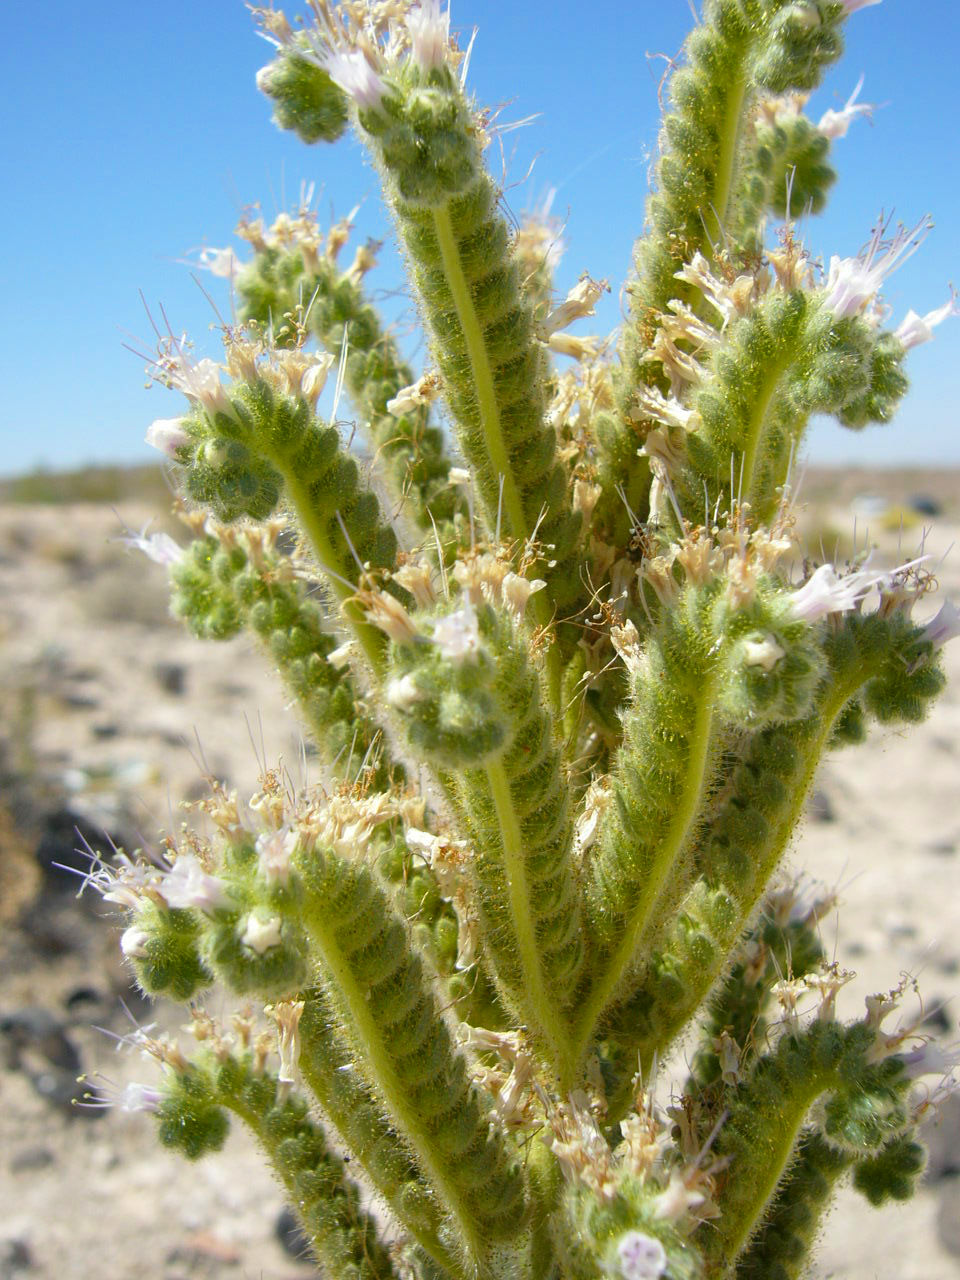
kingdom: Plantae
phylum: Tracheophyta
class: Magnoliopsida
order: Boraginales
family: Hydrophyllaceae
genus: Phacelia
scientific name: Phacelia palmeri
